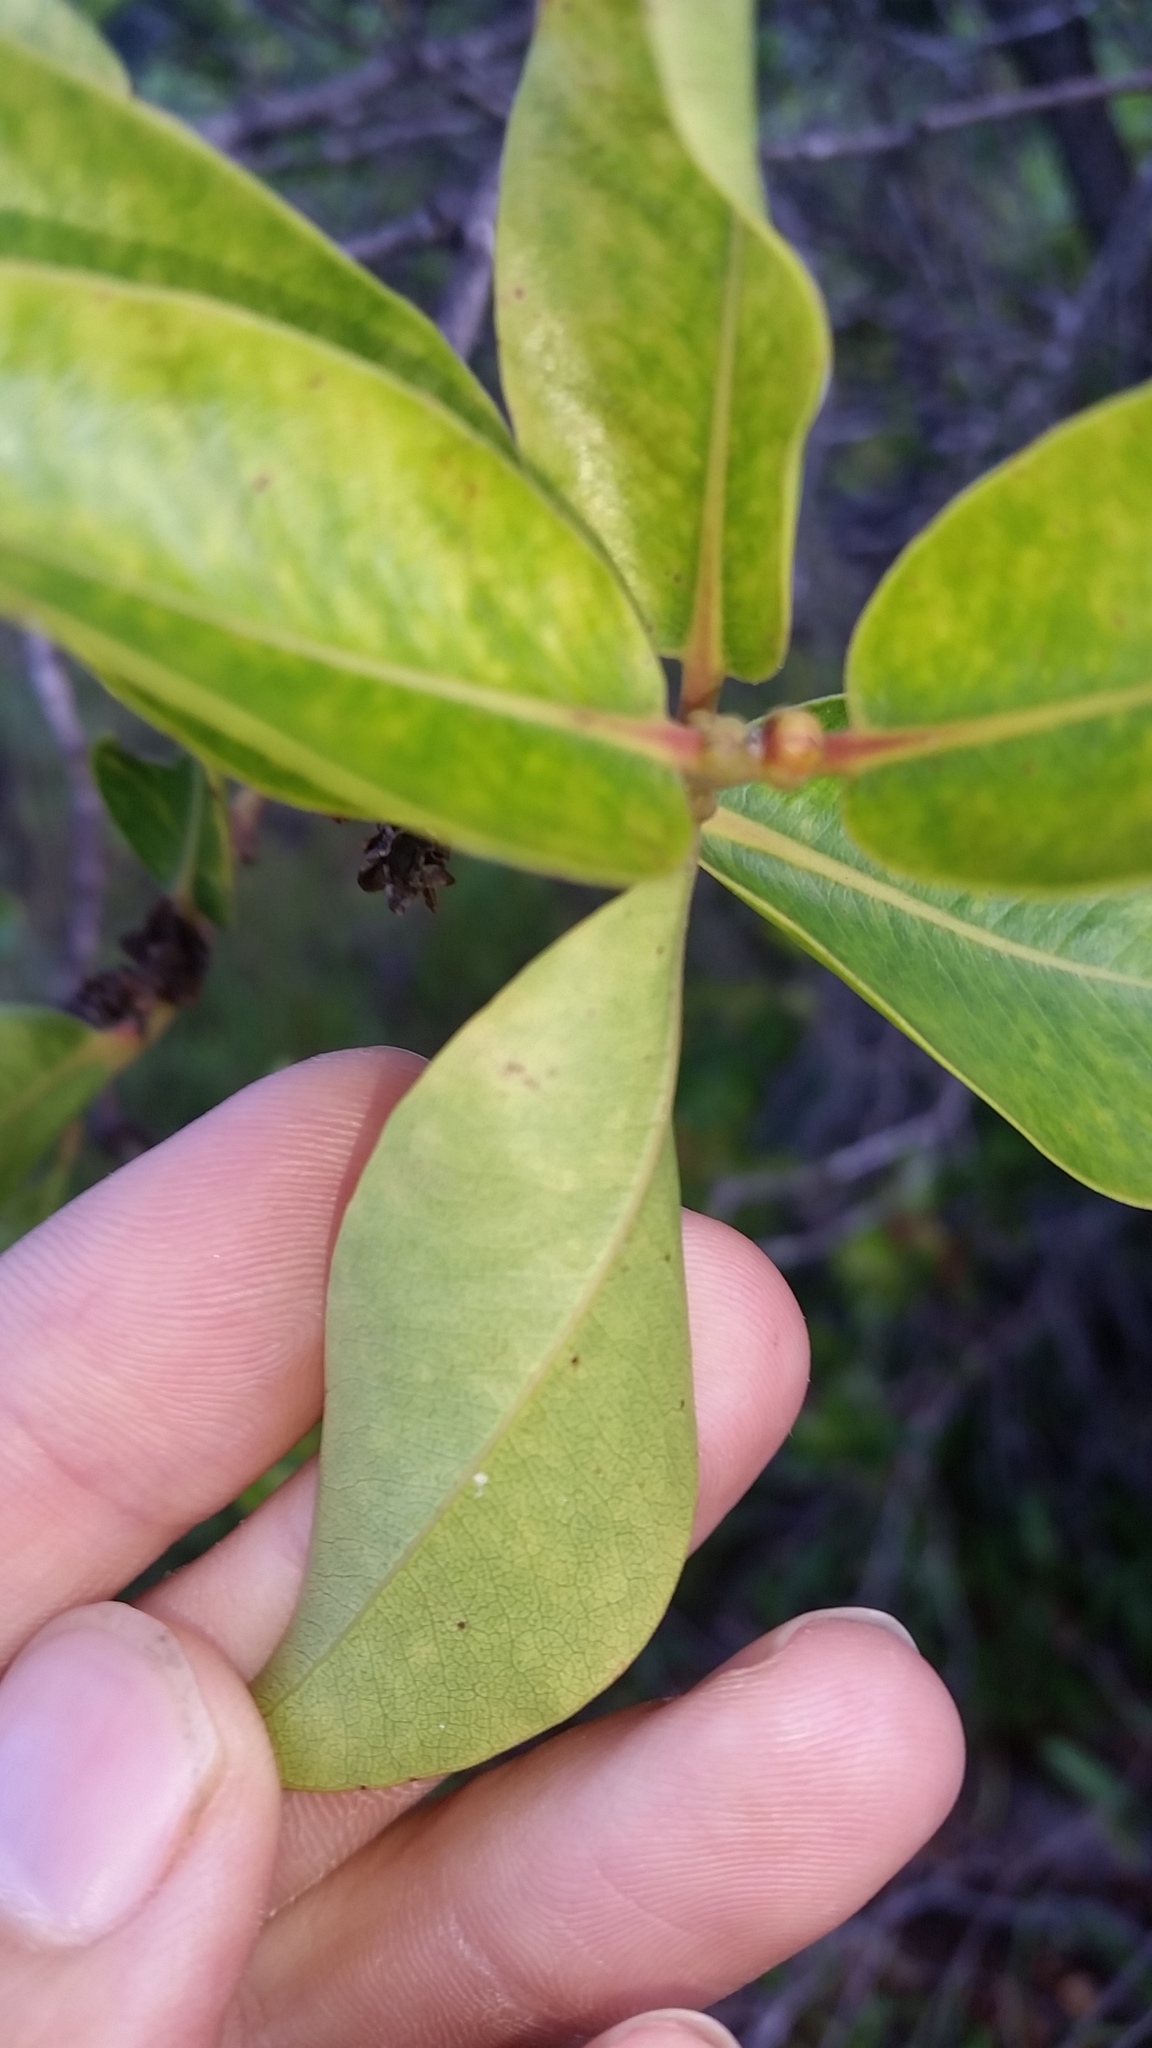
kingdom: Plantae
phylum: Tracheophyta
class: Magnoliopsida
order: Myrtales
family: Myrtaceae
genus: Metrosideros
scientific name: Metrosideros polymorpha
